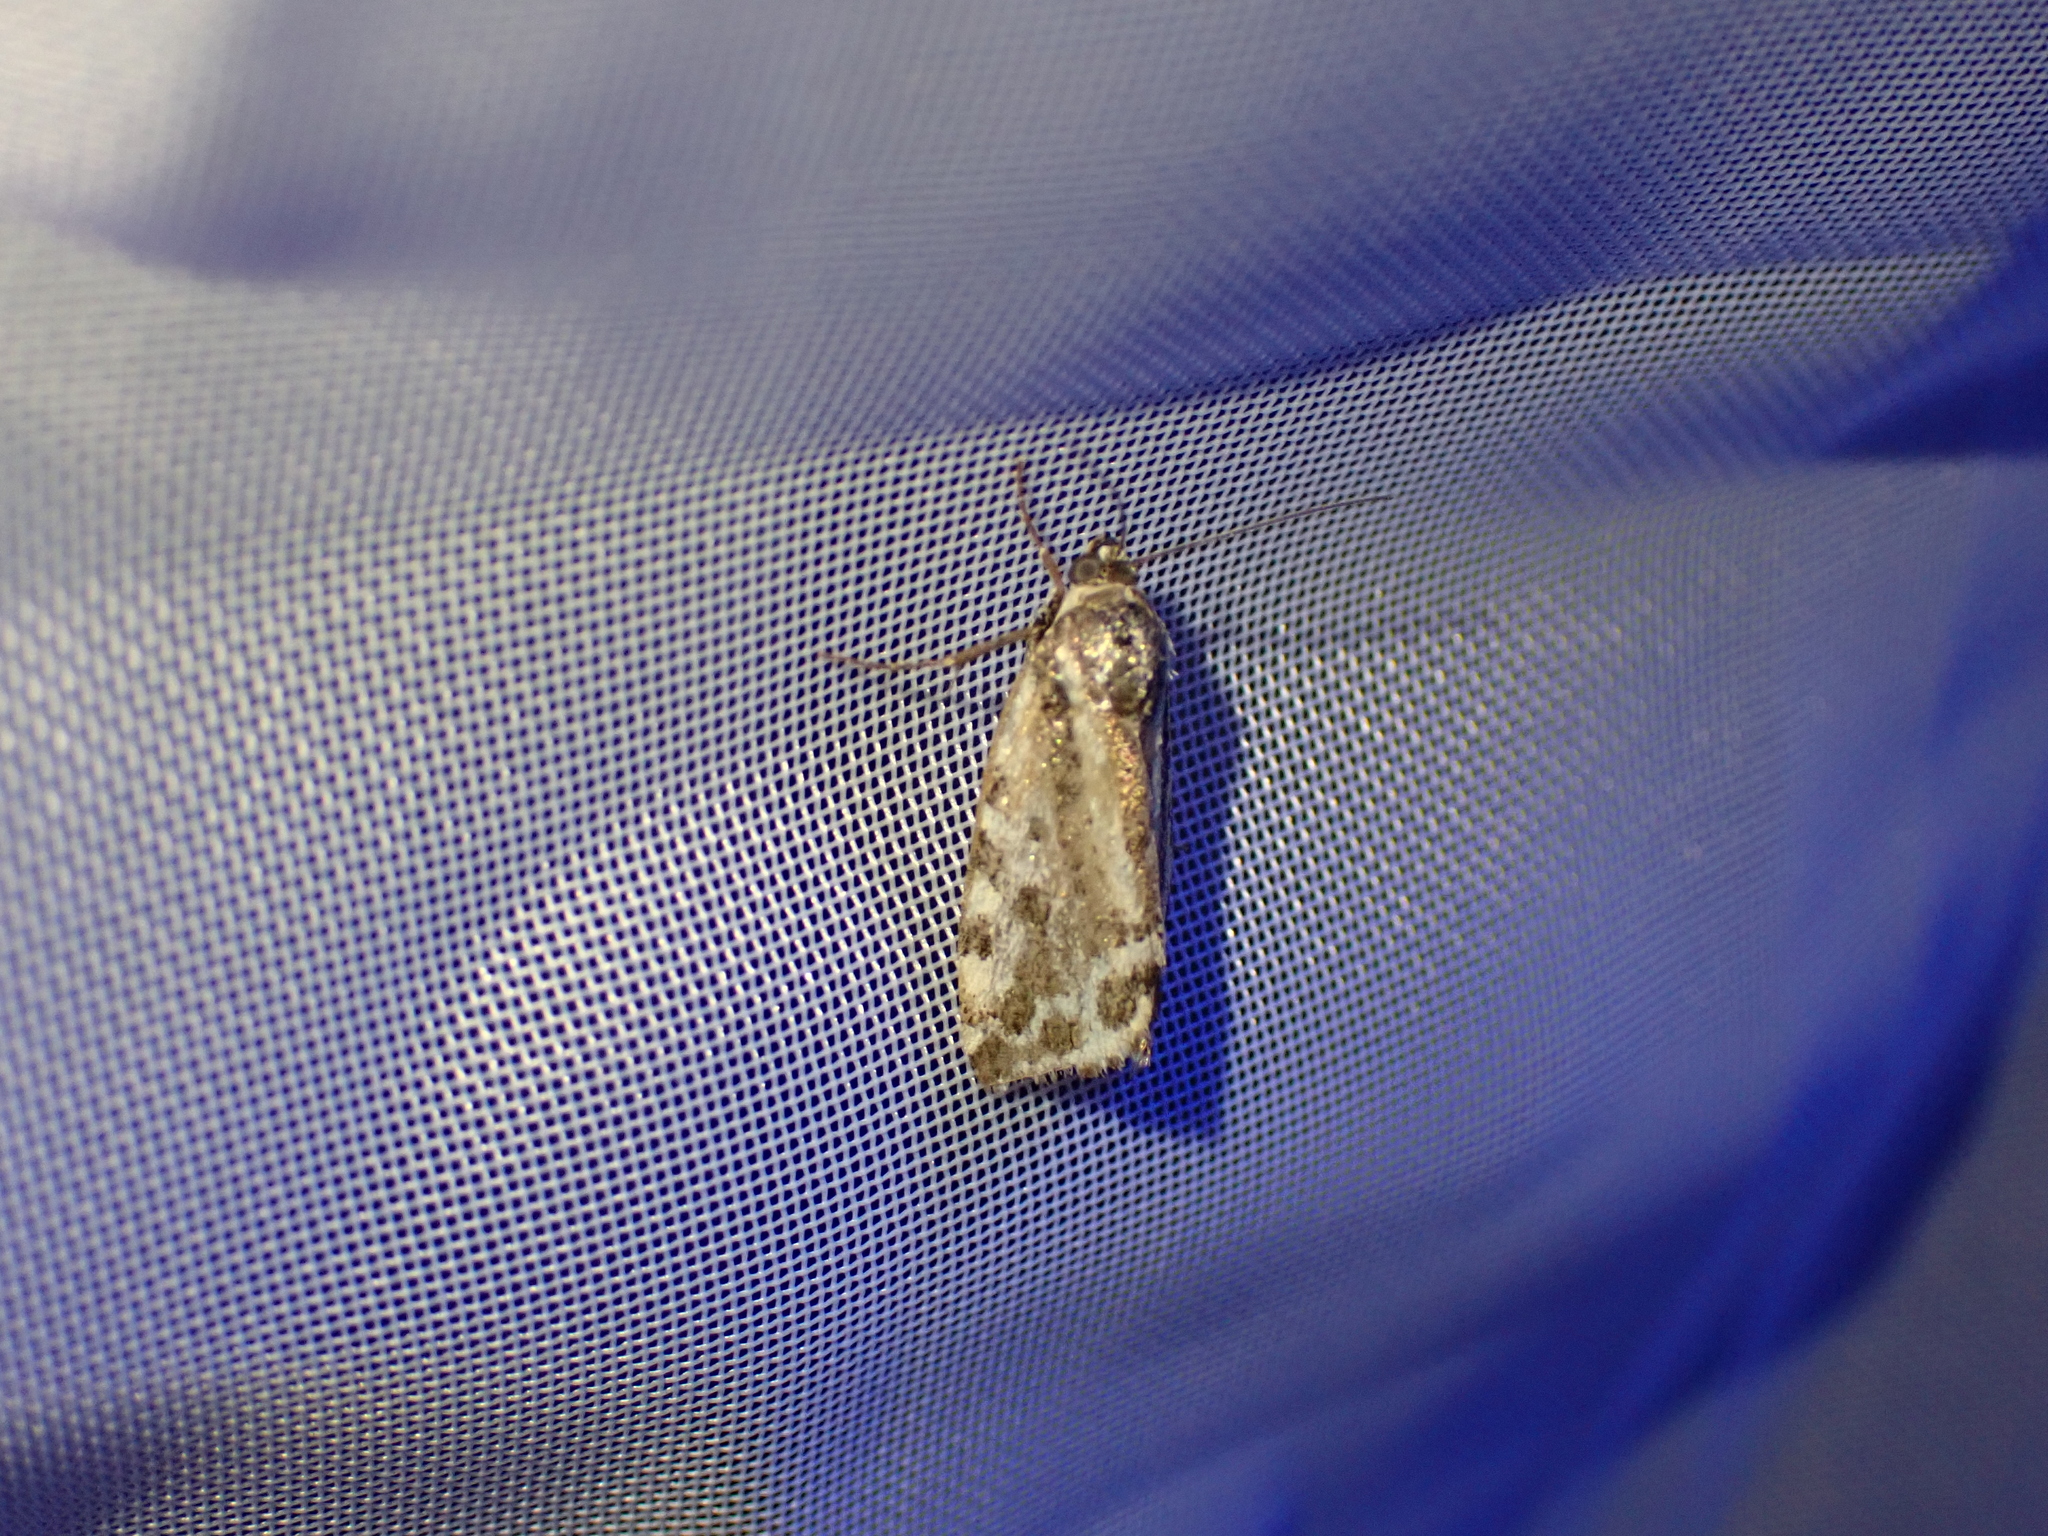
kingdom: Animalia
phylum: Arthropoda
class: Insecta
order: Lepidoptera
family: Noctuidae
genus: Acontia
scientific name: Acontia trabealis
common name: Spotted sulphur
